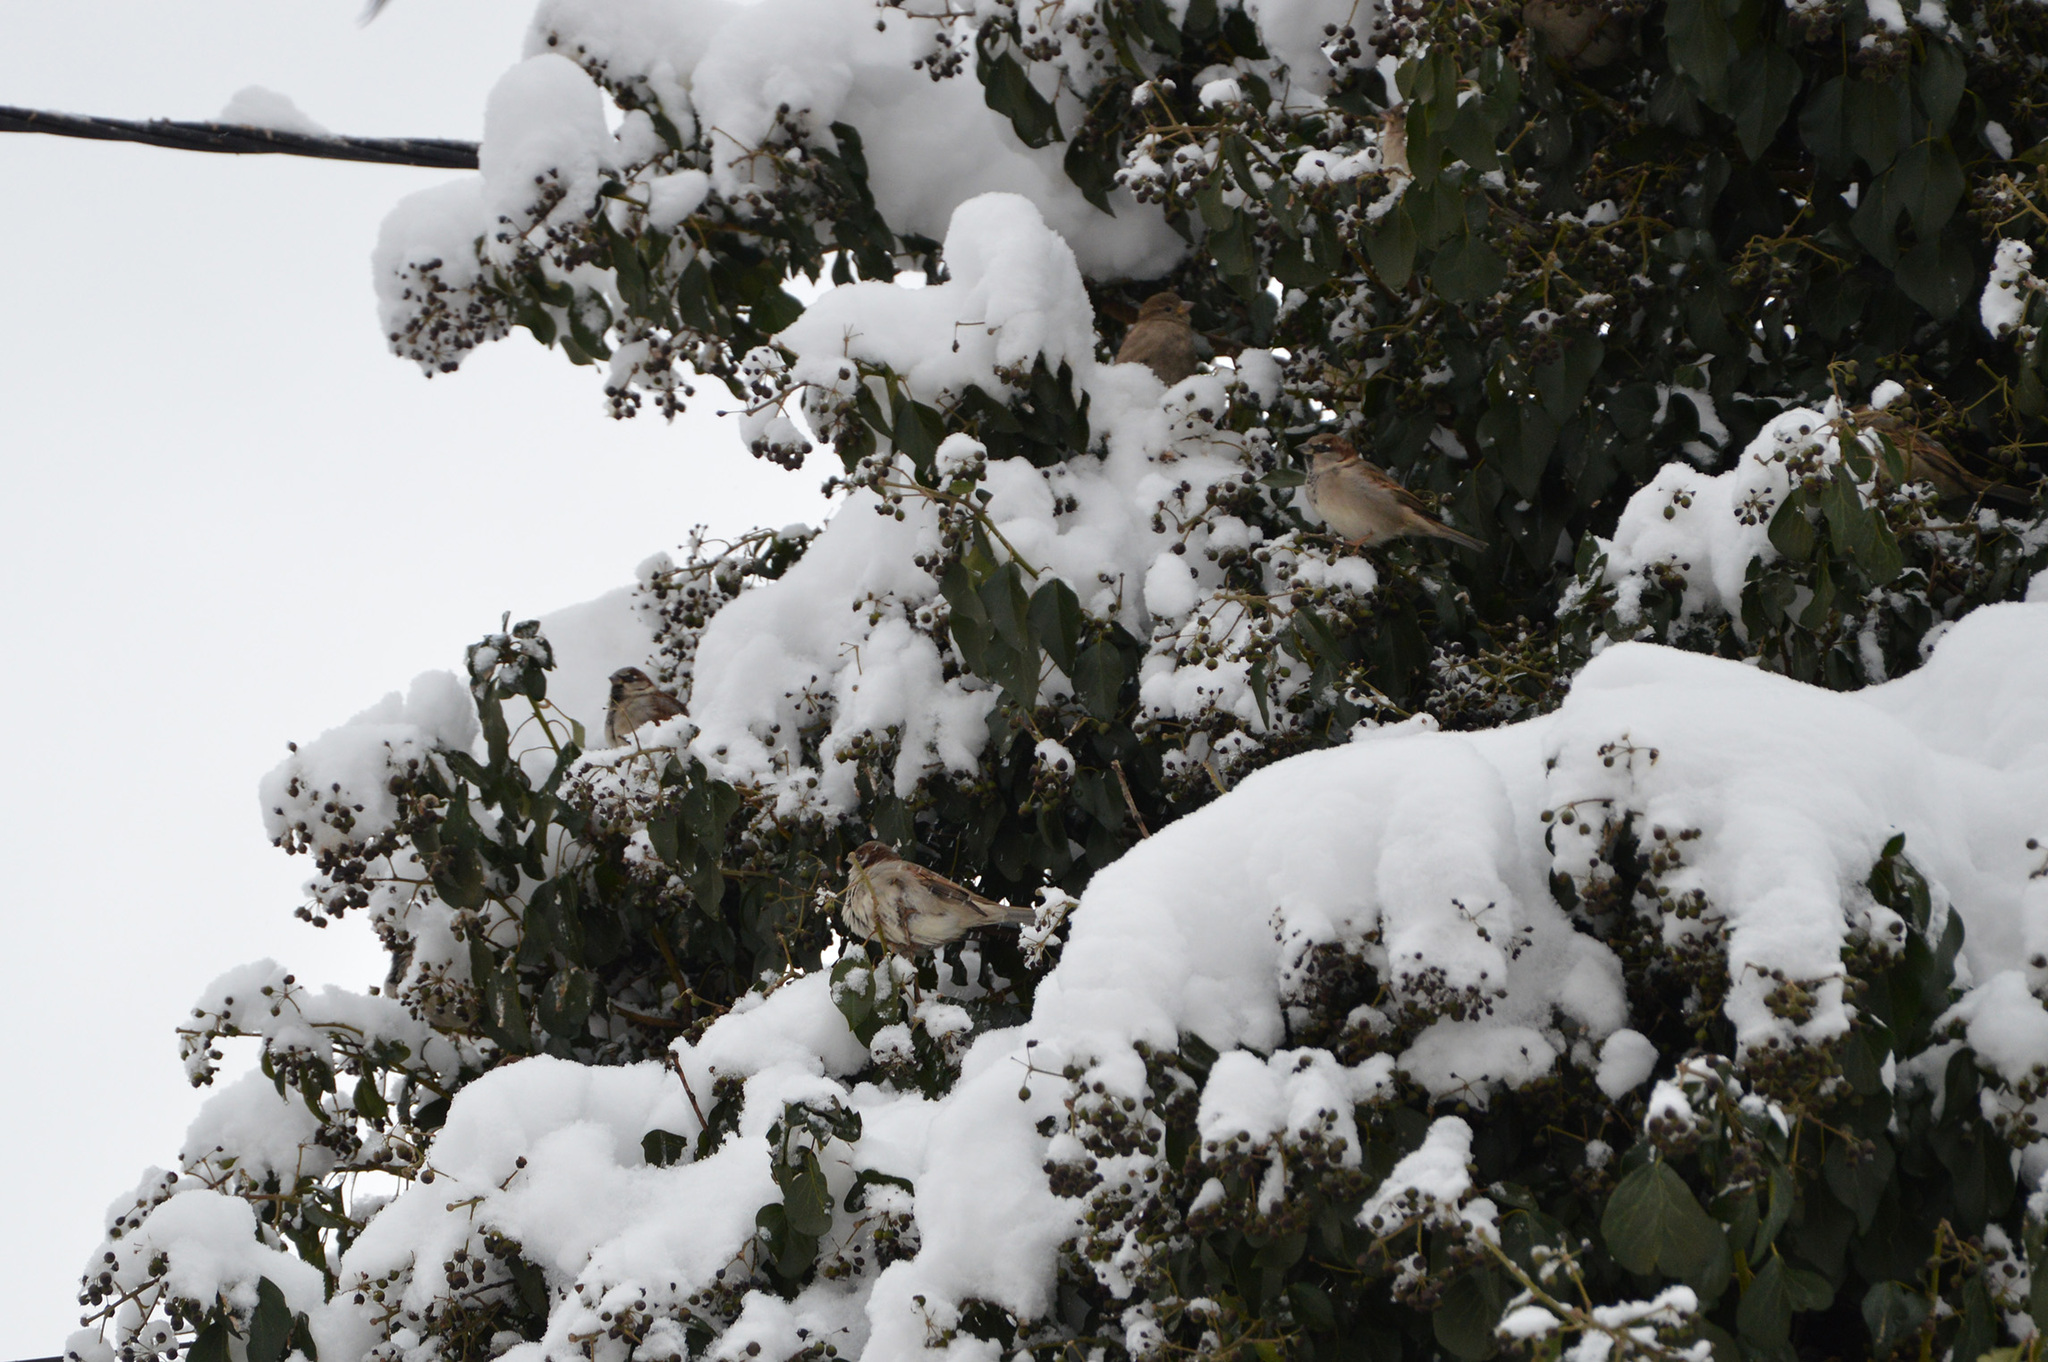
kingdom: Animalia
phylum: Chordata
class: Aves
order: Passeriformes
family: Passeridae
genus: Passer
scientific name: Passer domesticus
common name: House sparrow
